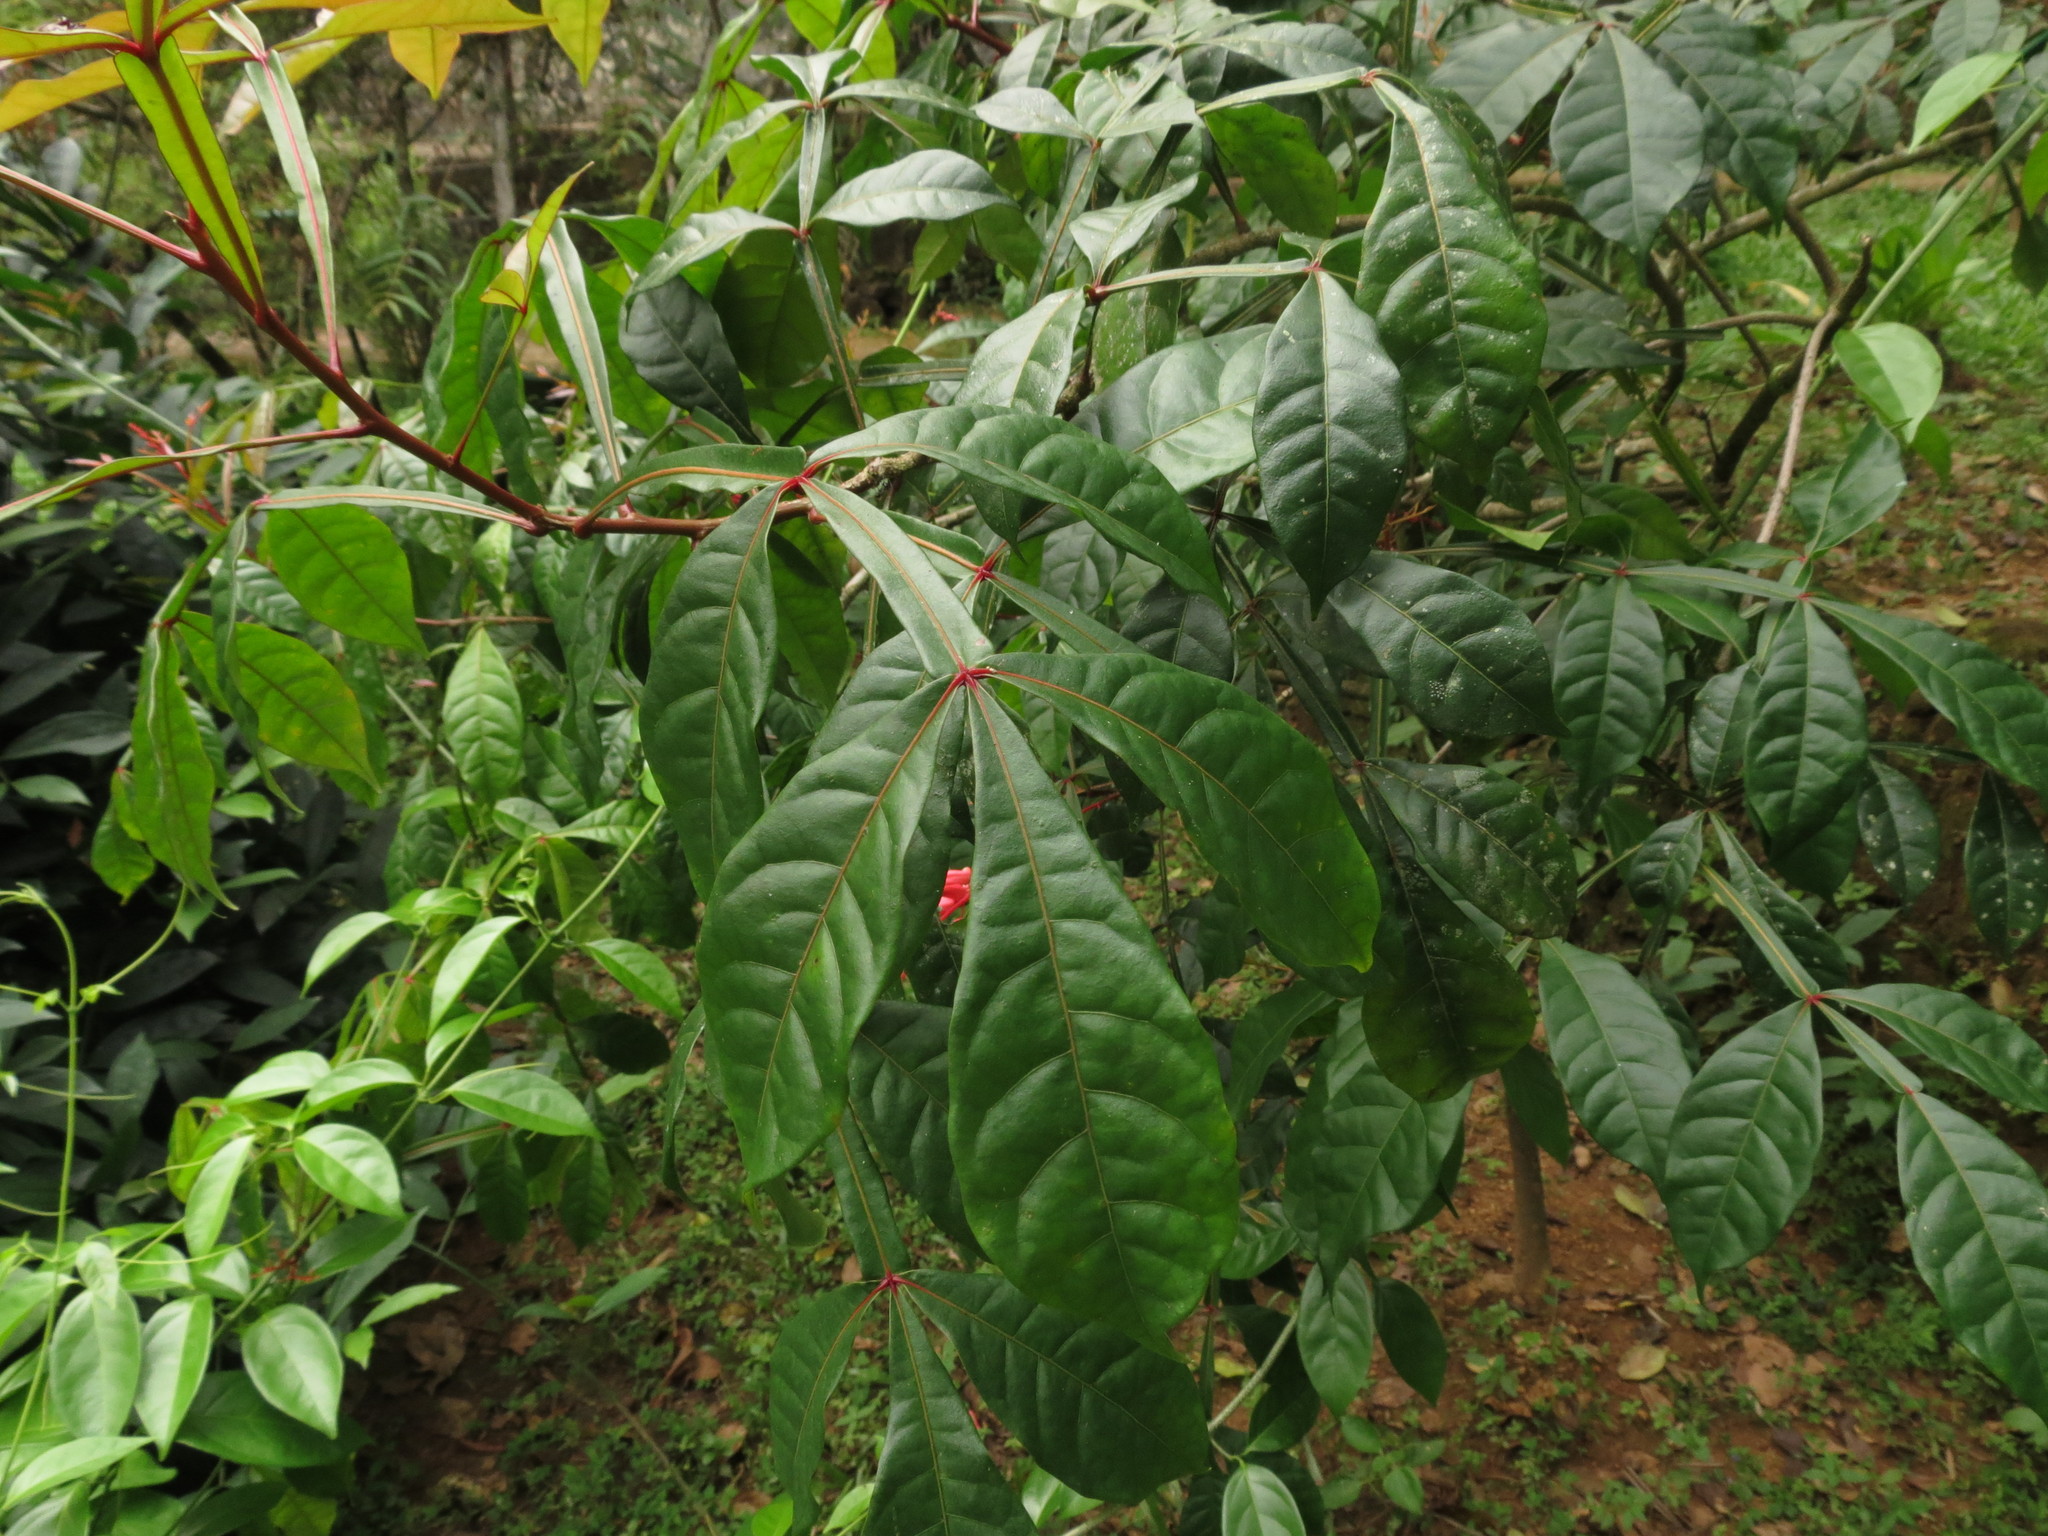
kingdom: Plantae
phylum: Tracheophyta
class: Magnoliopsida
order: Sapindales
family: Simaroubaceae
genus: Quassia
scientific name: Quassia amara
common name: Quassia
